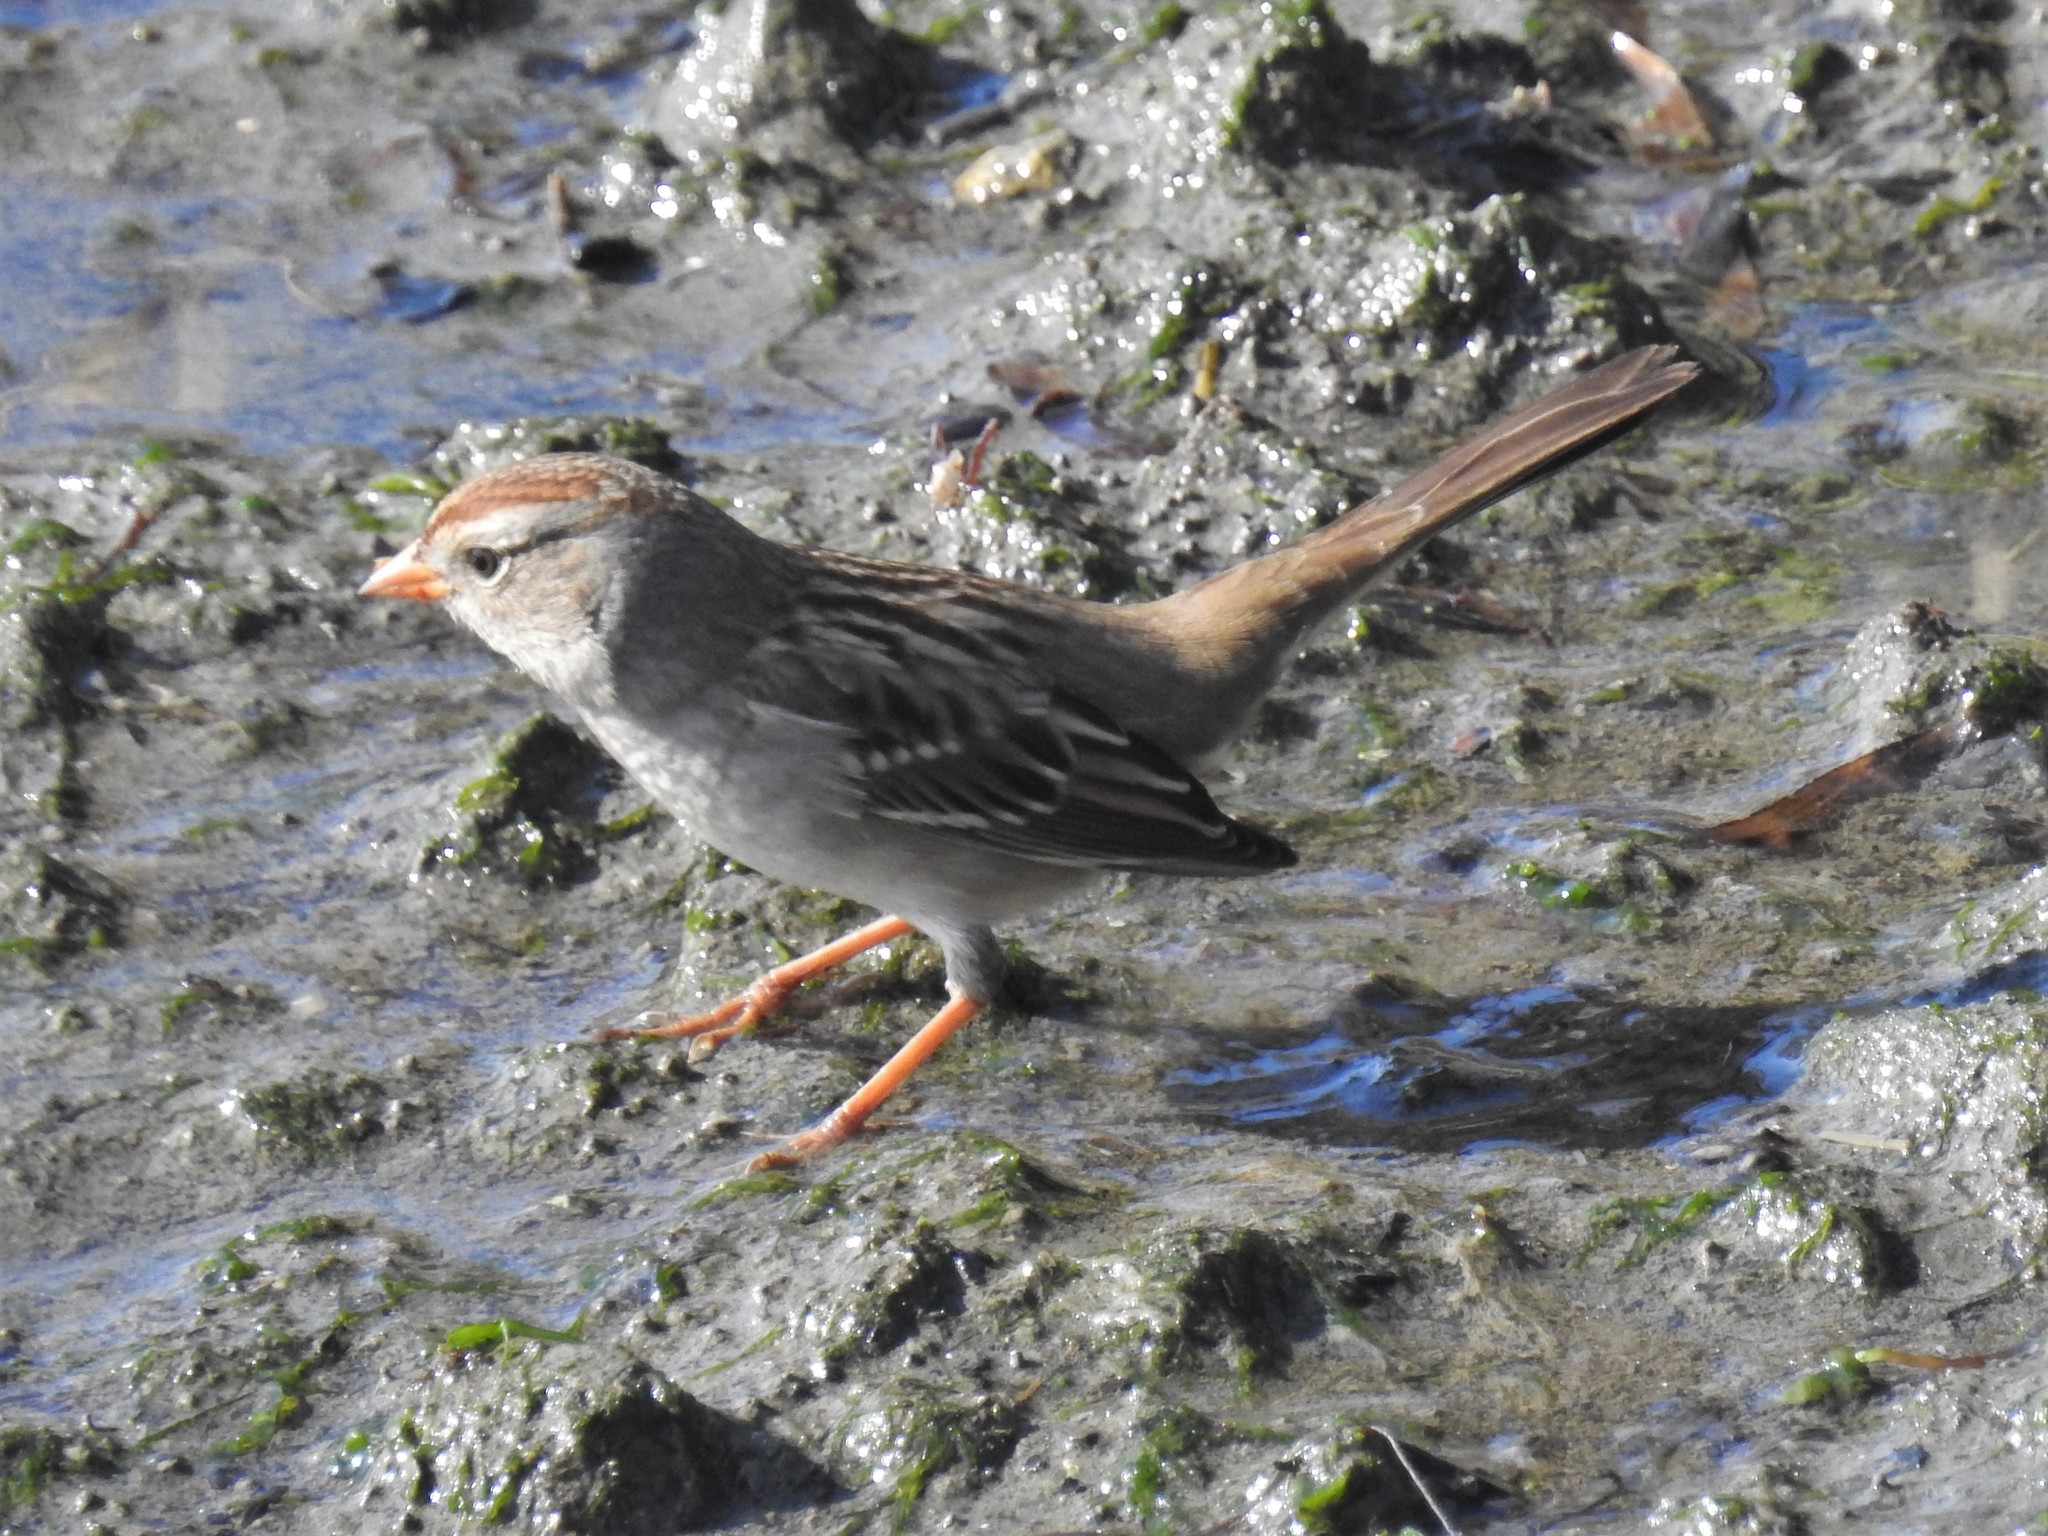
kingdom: Animalia
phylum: Chordata
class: Aves
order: Passeriformes
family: Passerellidae
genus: Zonotrichia
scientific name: Zonotrichia leucophrys
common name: White-crowned sparrow
